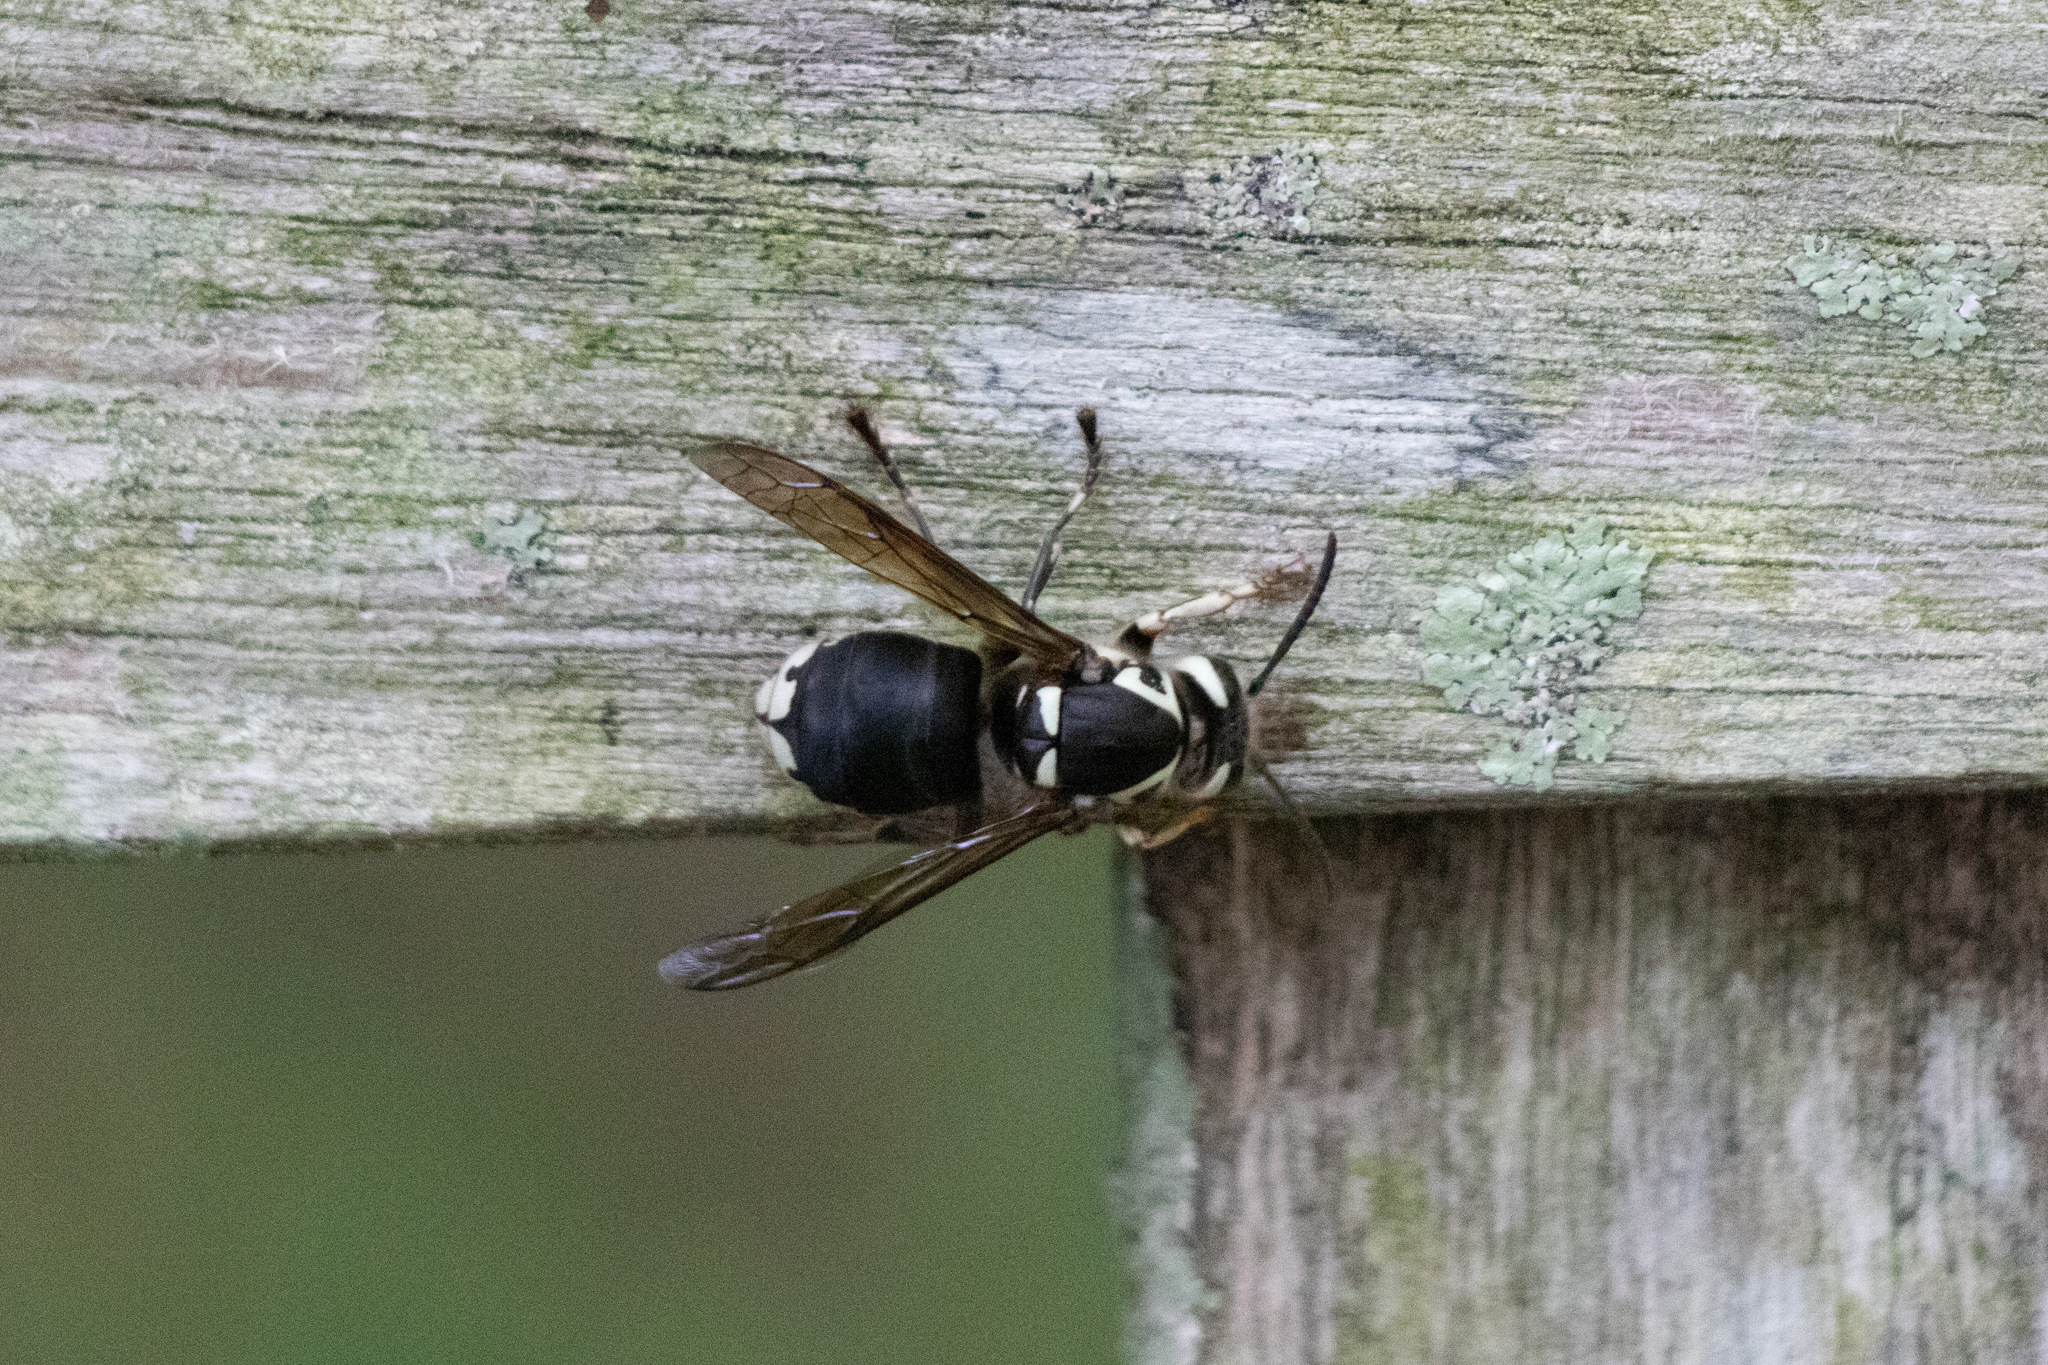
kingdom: Animalia
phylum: Arthropoda
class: Insecta
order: Hymenoptera
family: Vespidae
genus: Dolichovespula
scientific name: Dolichovespula maculata
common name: Bald-faced hornet
